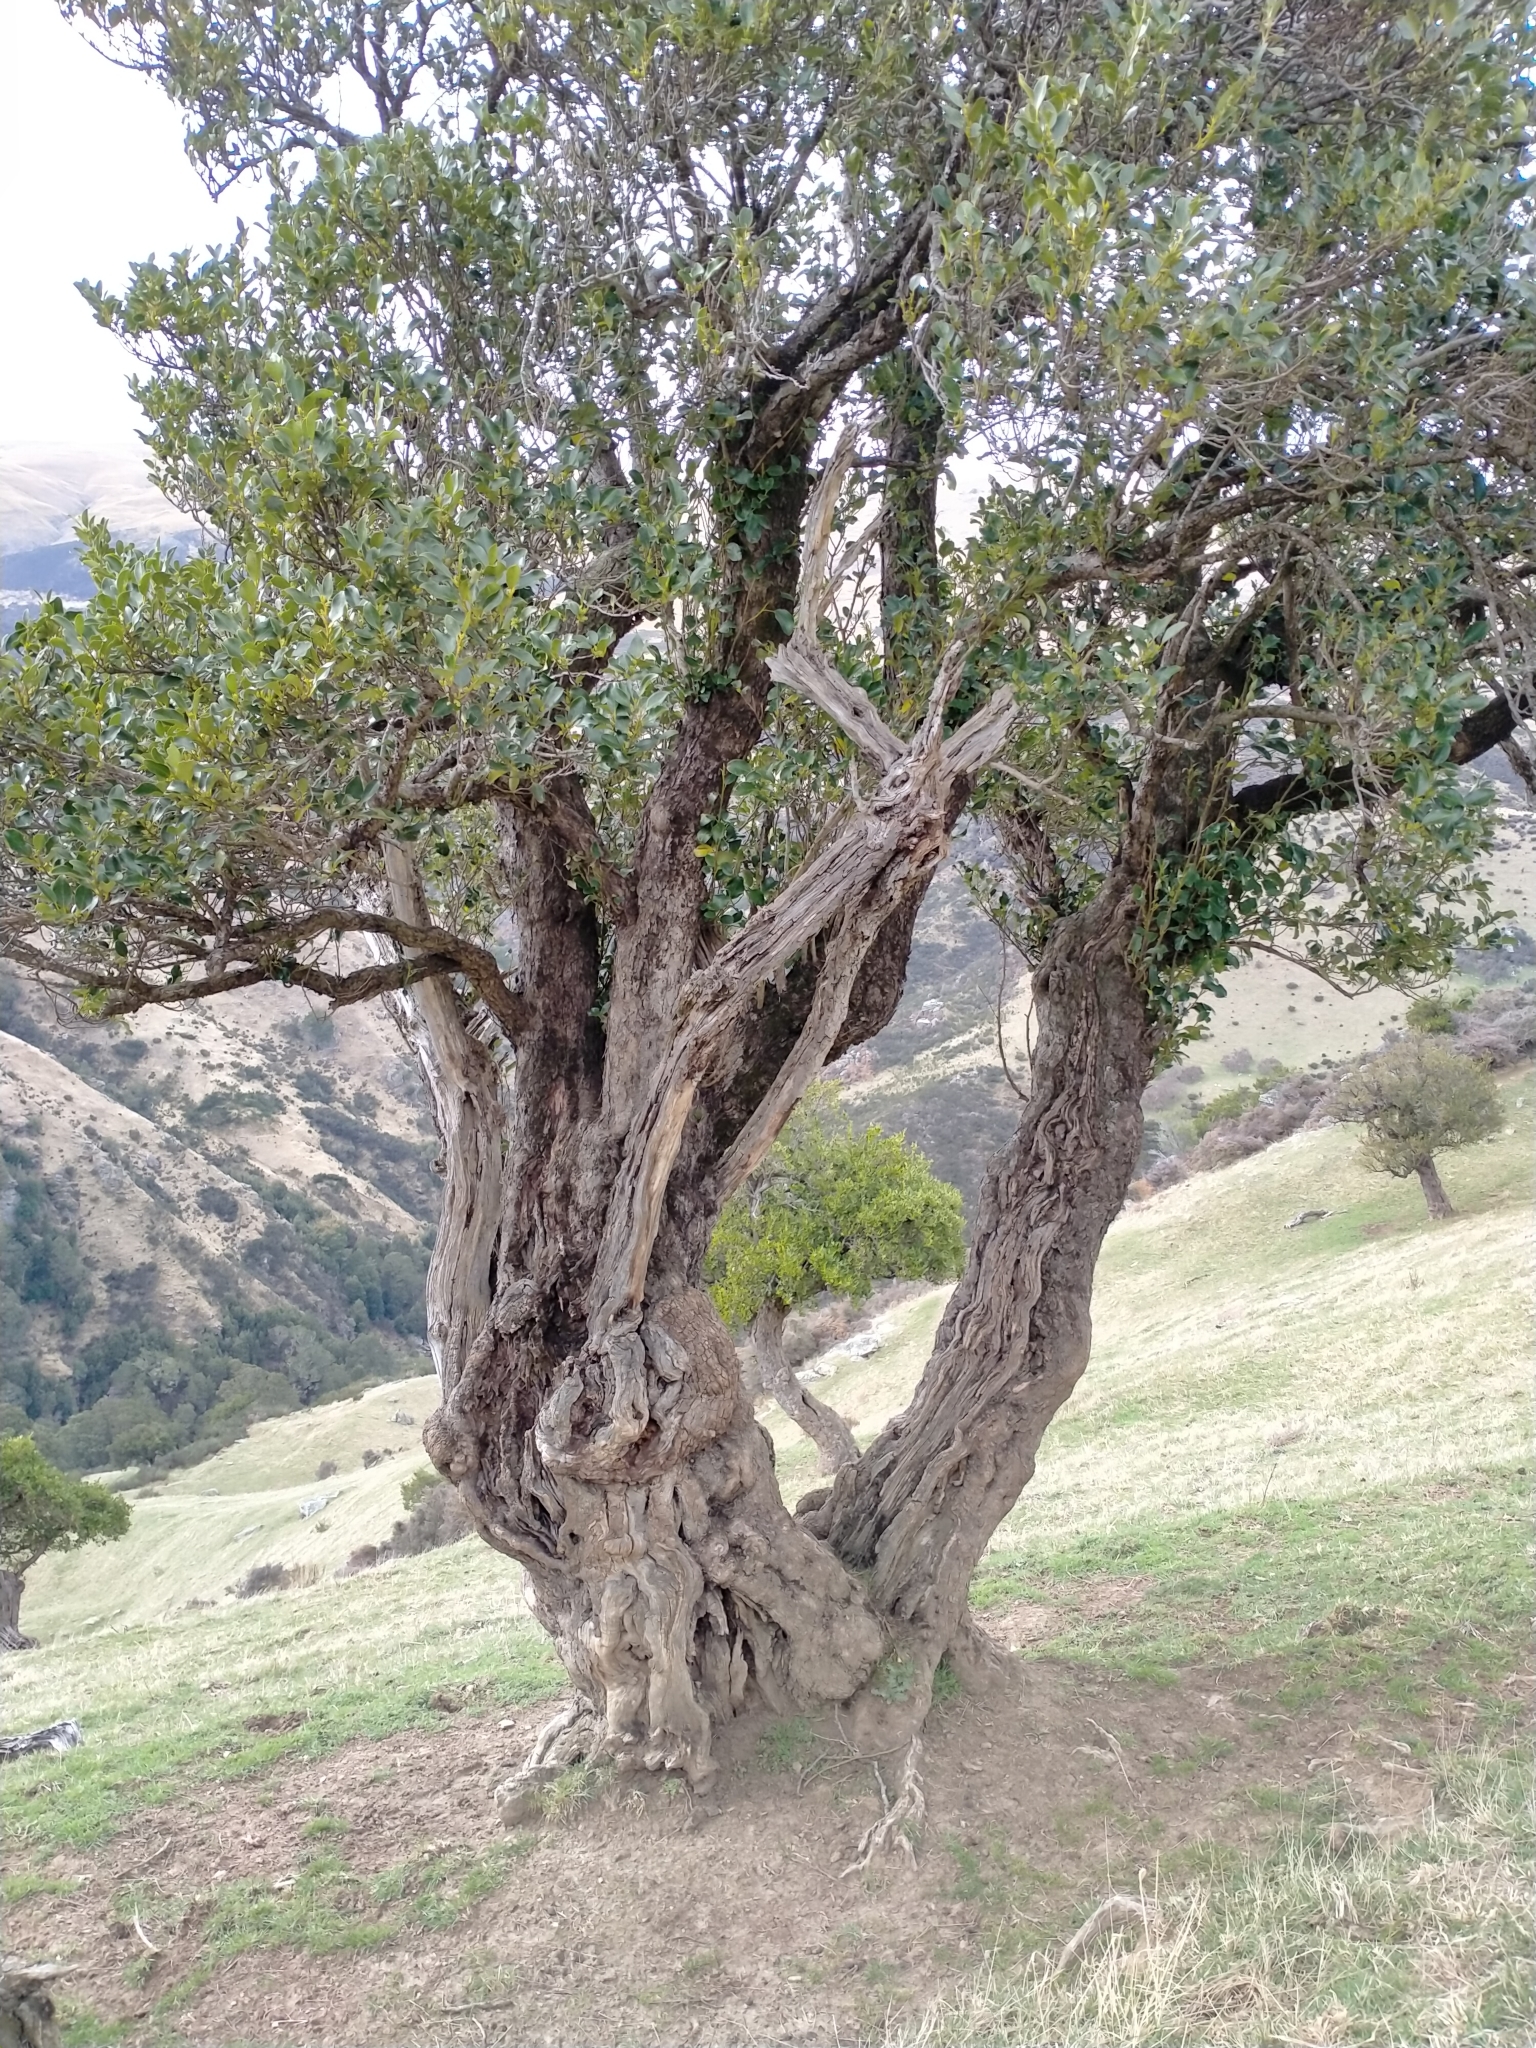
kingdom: Plantae
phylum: Tracheophyta
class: Magnoliopsida
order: Apiales
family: Griseliniaceae
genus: Griselinia
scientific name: Griselinia littoralis
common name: New zealand broadleaf
